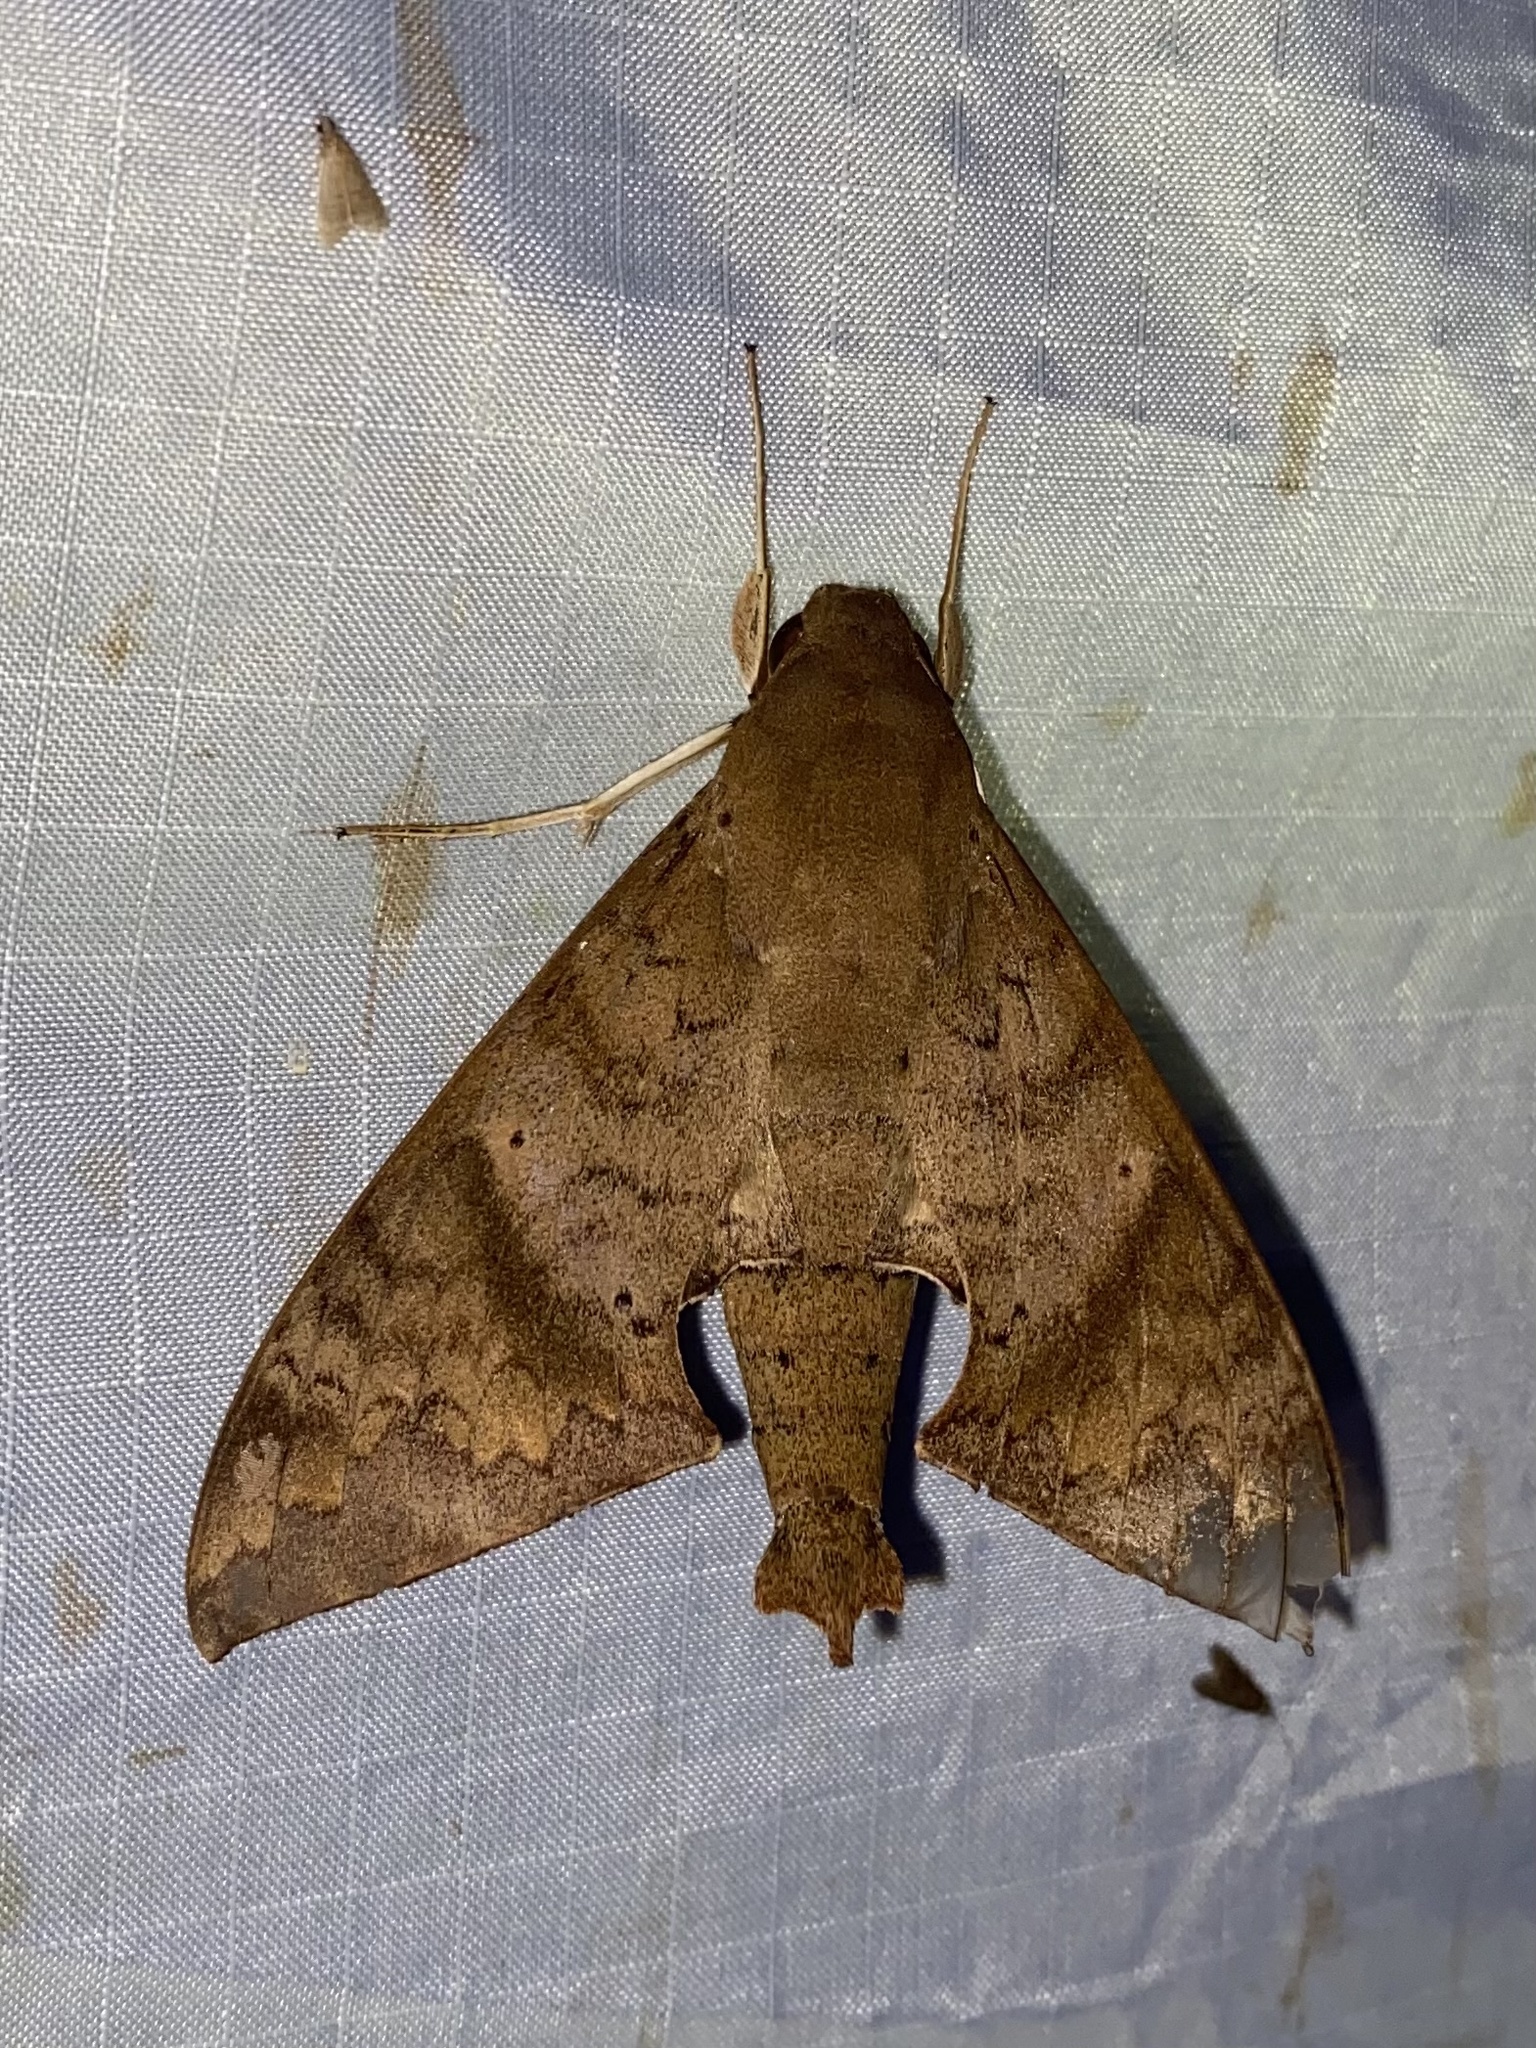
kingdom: Animalia
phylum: Arthropoda
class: Insecta
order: Lepidoptera
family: Sphingidae
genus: Pachylioides
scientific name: Pachylioides resumens
